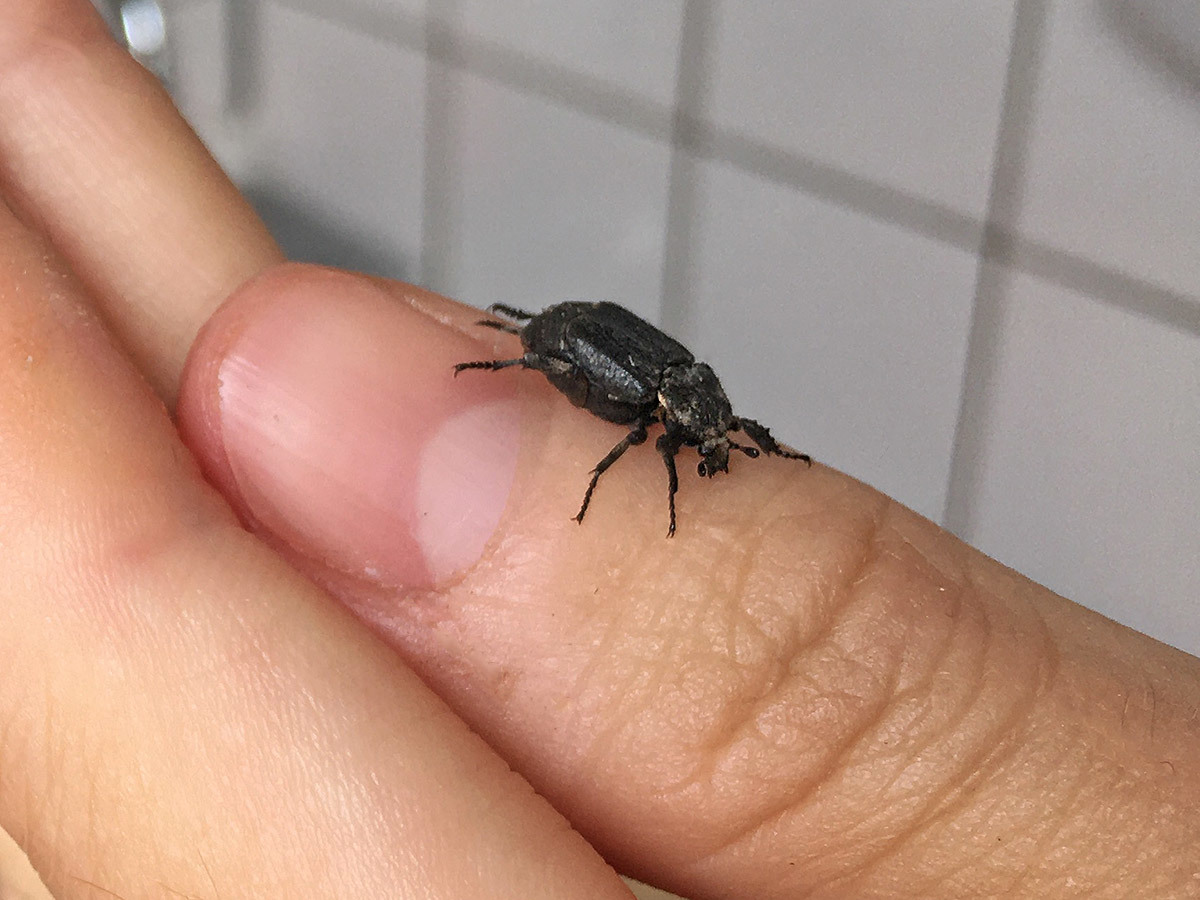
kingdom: Animalia
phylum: Arthropoda
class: Insecta
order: Coleoptera
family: Scarabaeidae
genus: Valgus
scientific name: Valgus hemipterus
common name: Bug flower chafer
